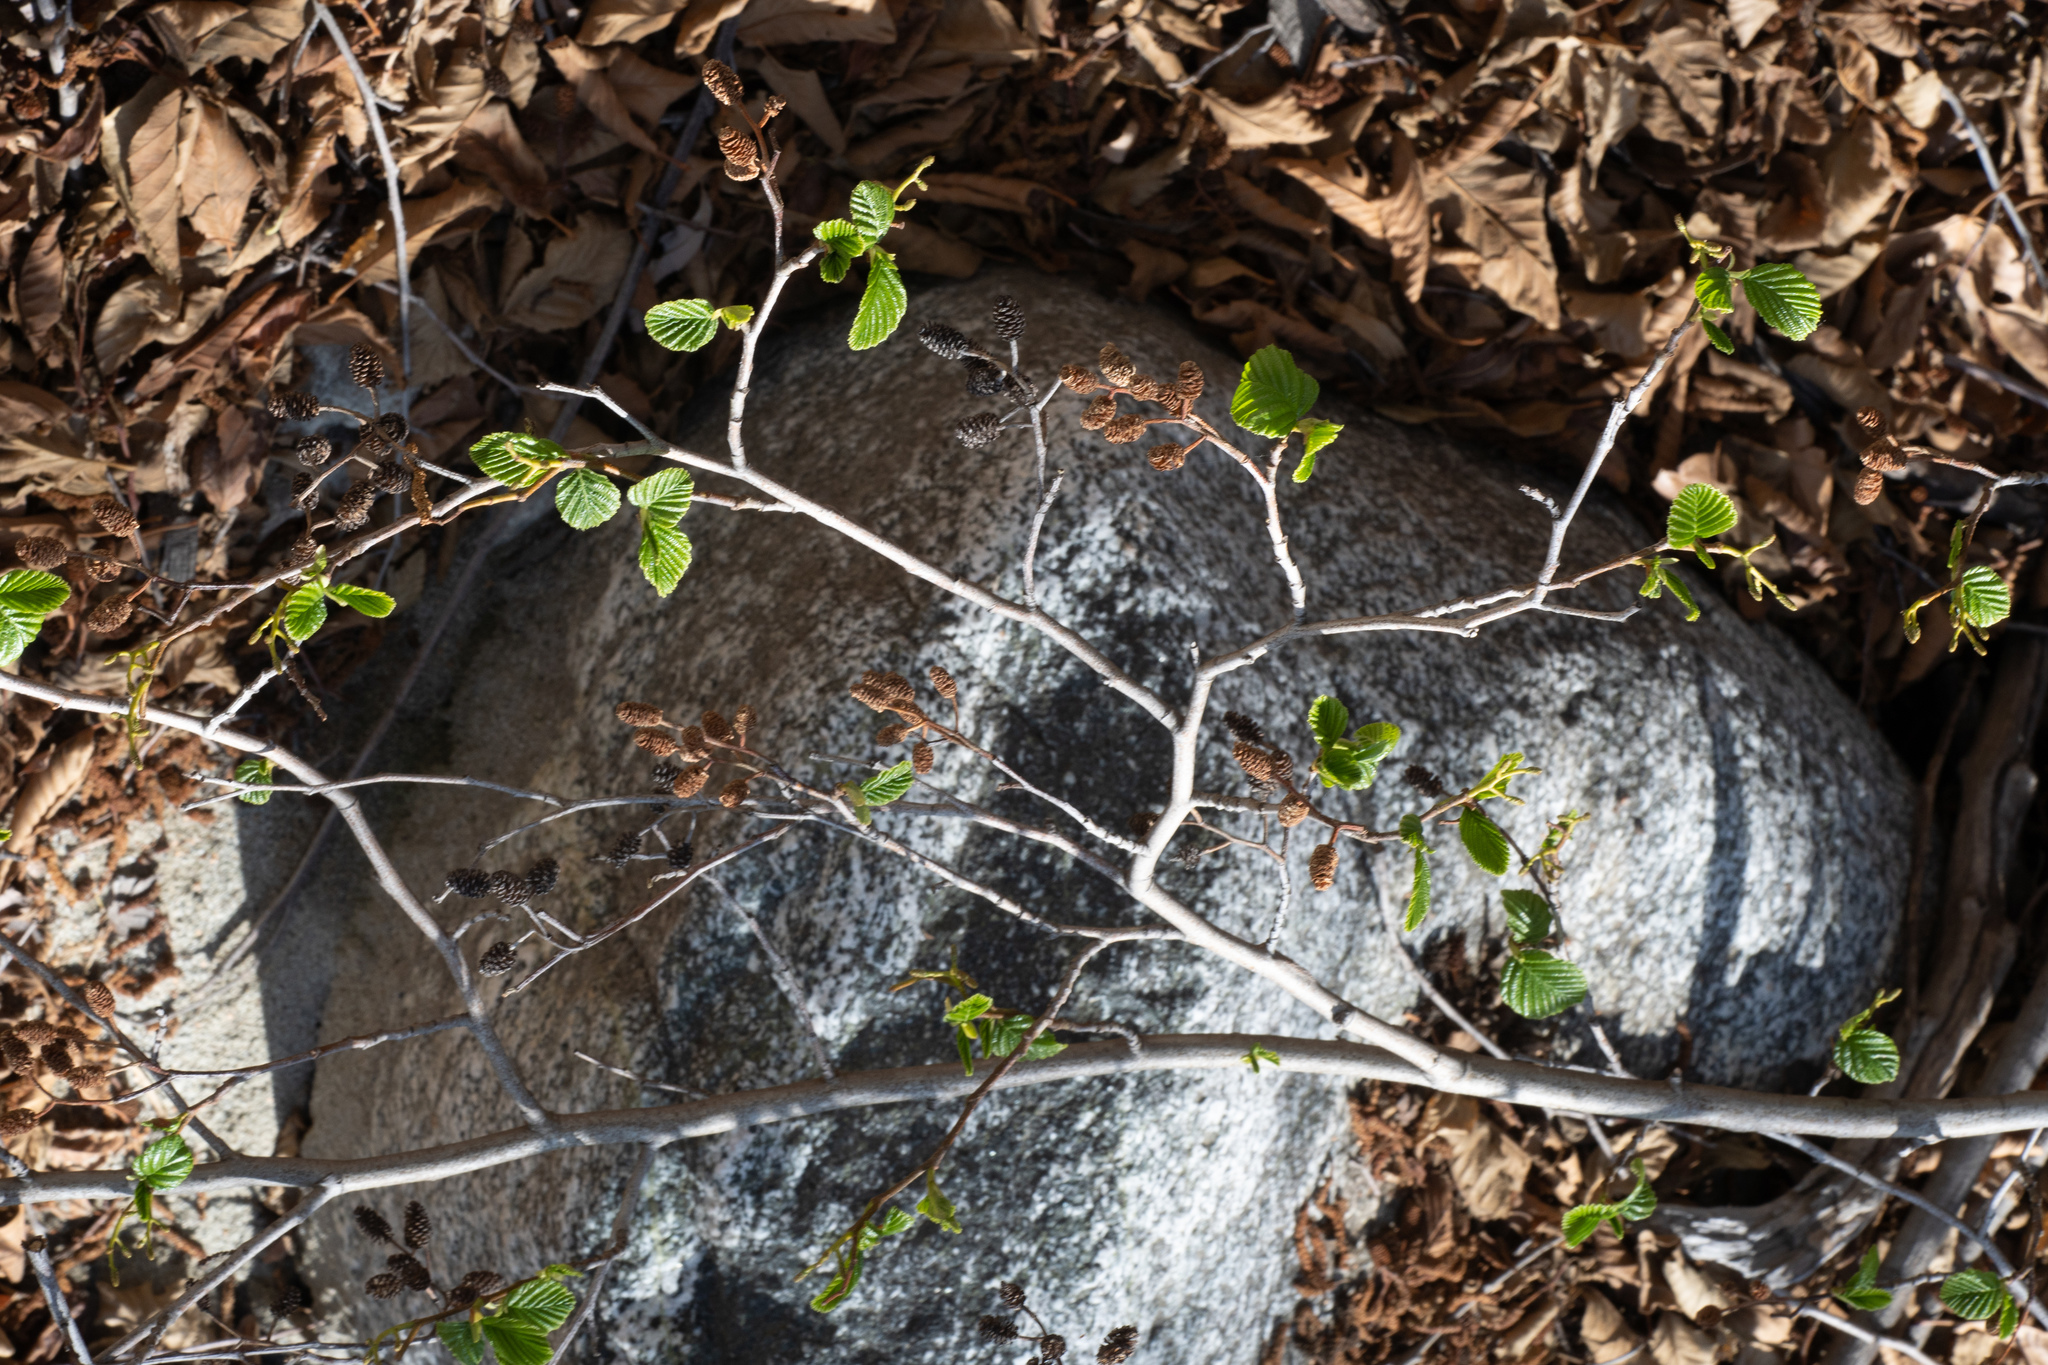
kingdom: Plantae
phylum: Tracheophyta
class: Magnoliopsida
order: Fagales
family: Betulaceae
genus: Alnus
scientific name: Alnus rhombifolia
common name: California alder
